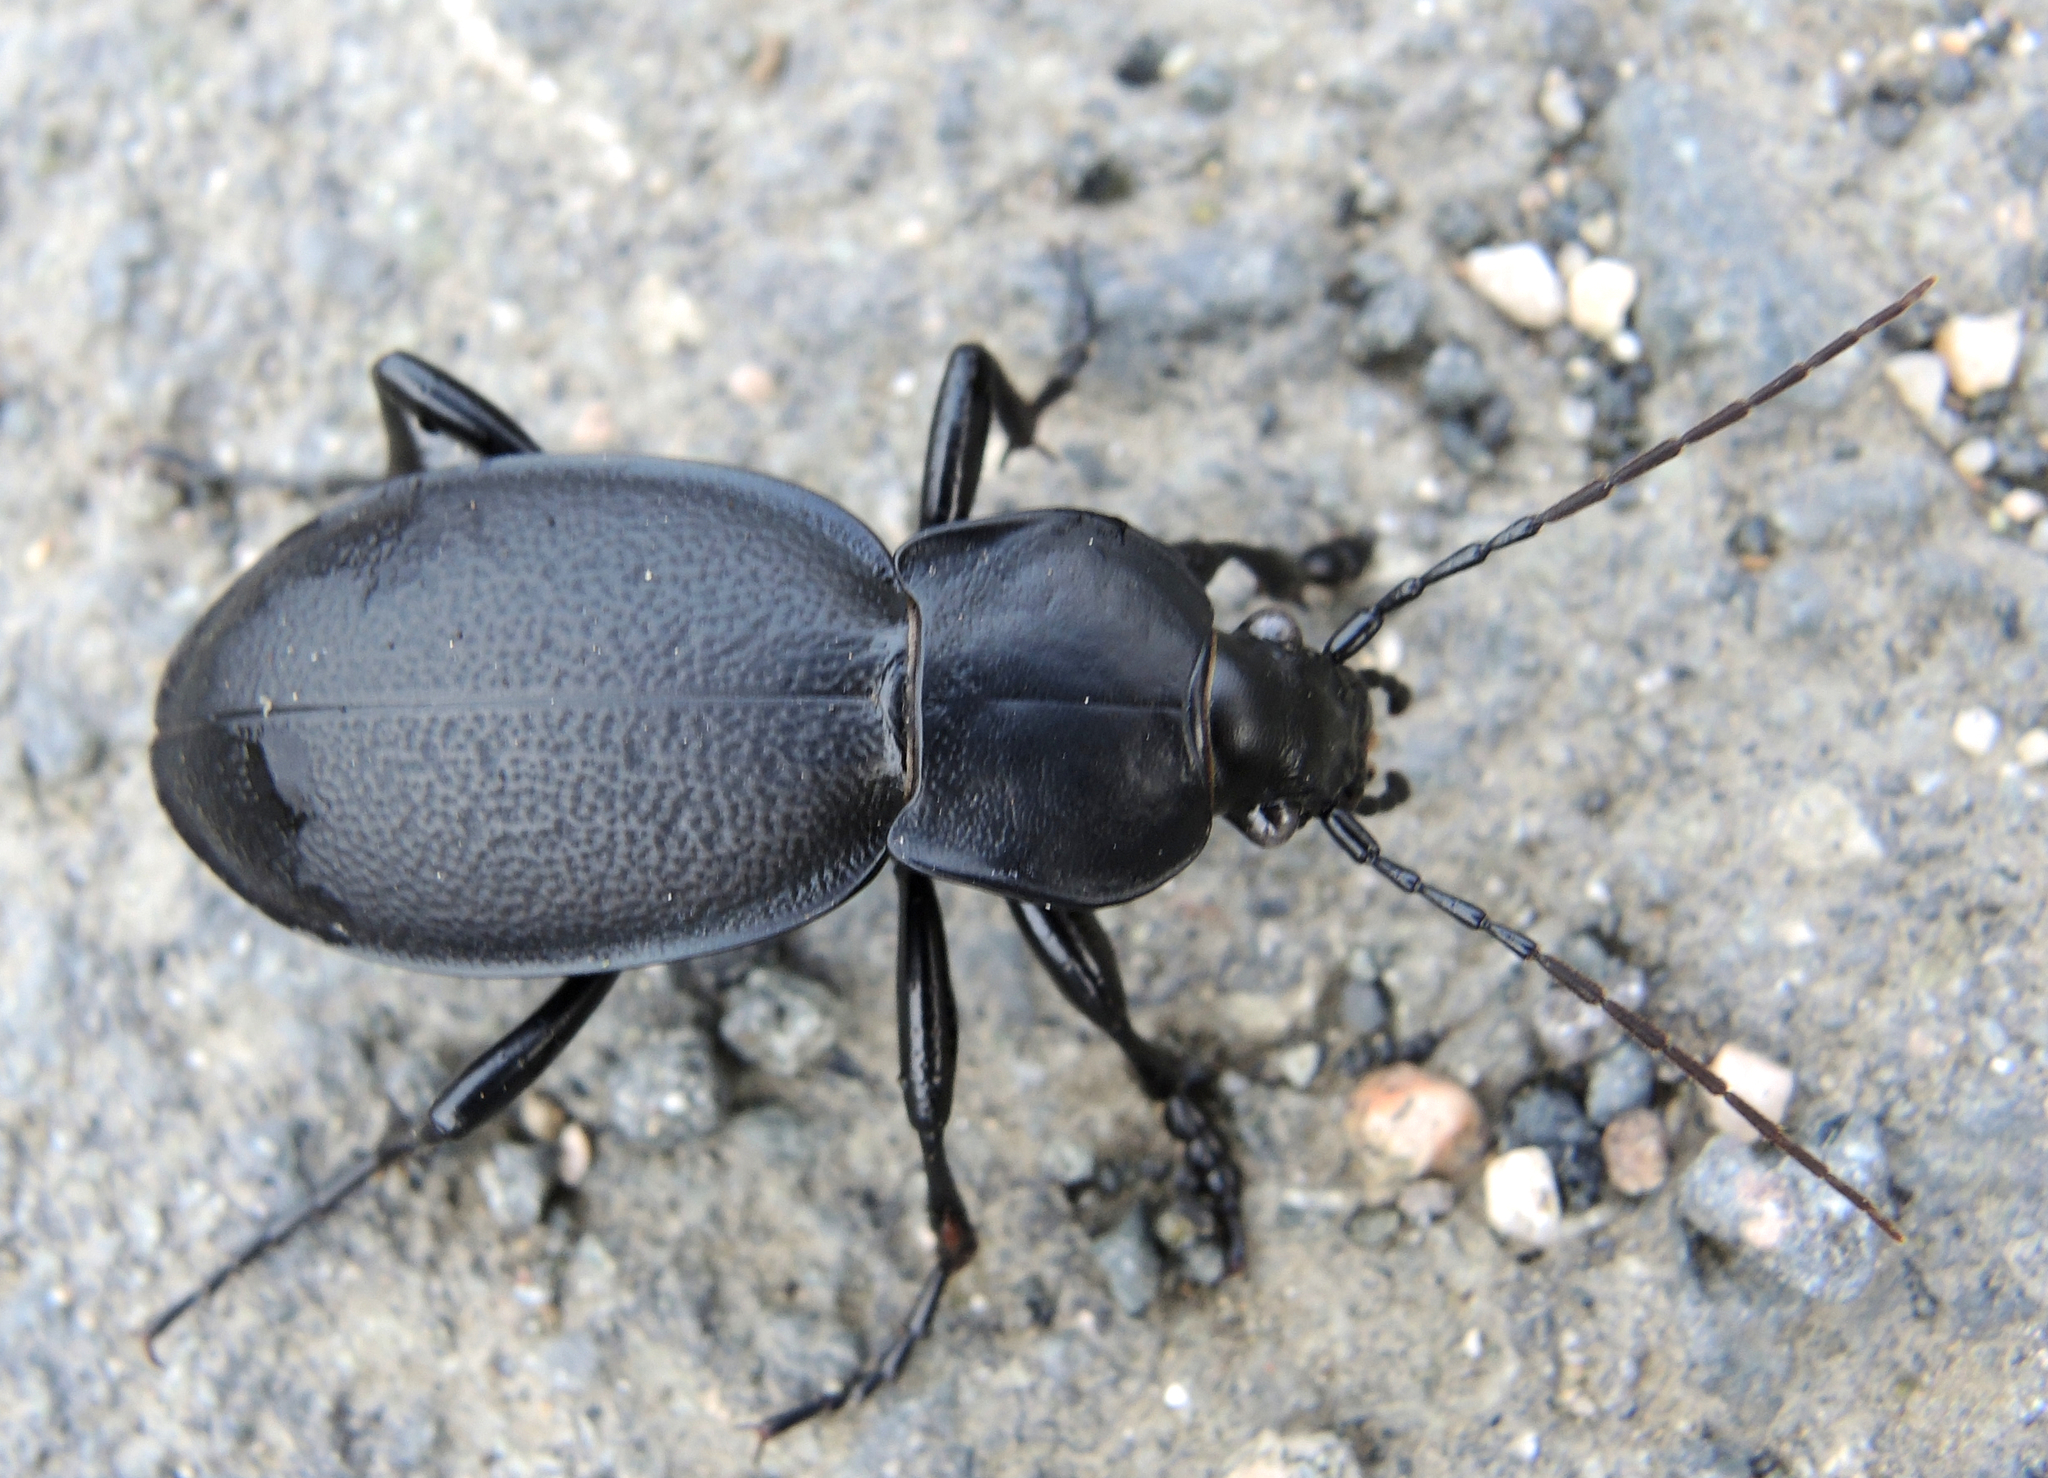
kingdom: Animalia
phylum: Arthropoda
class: Insecta
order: Coleoptera
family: Carabidae
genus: Carabus
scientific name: Carabus coriaceus
